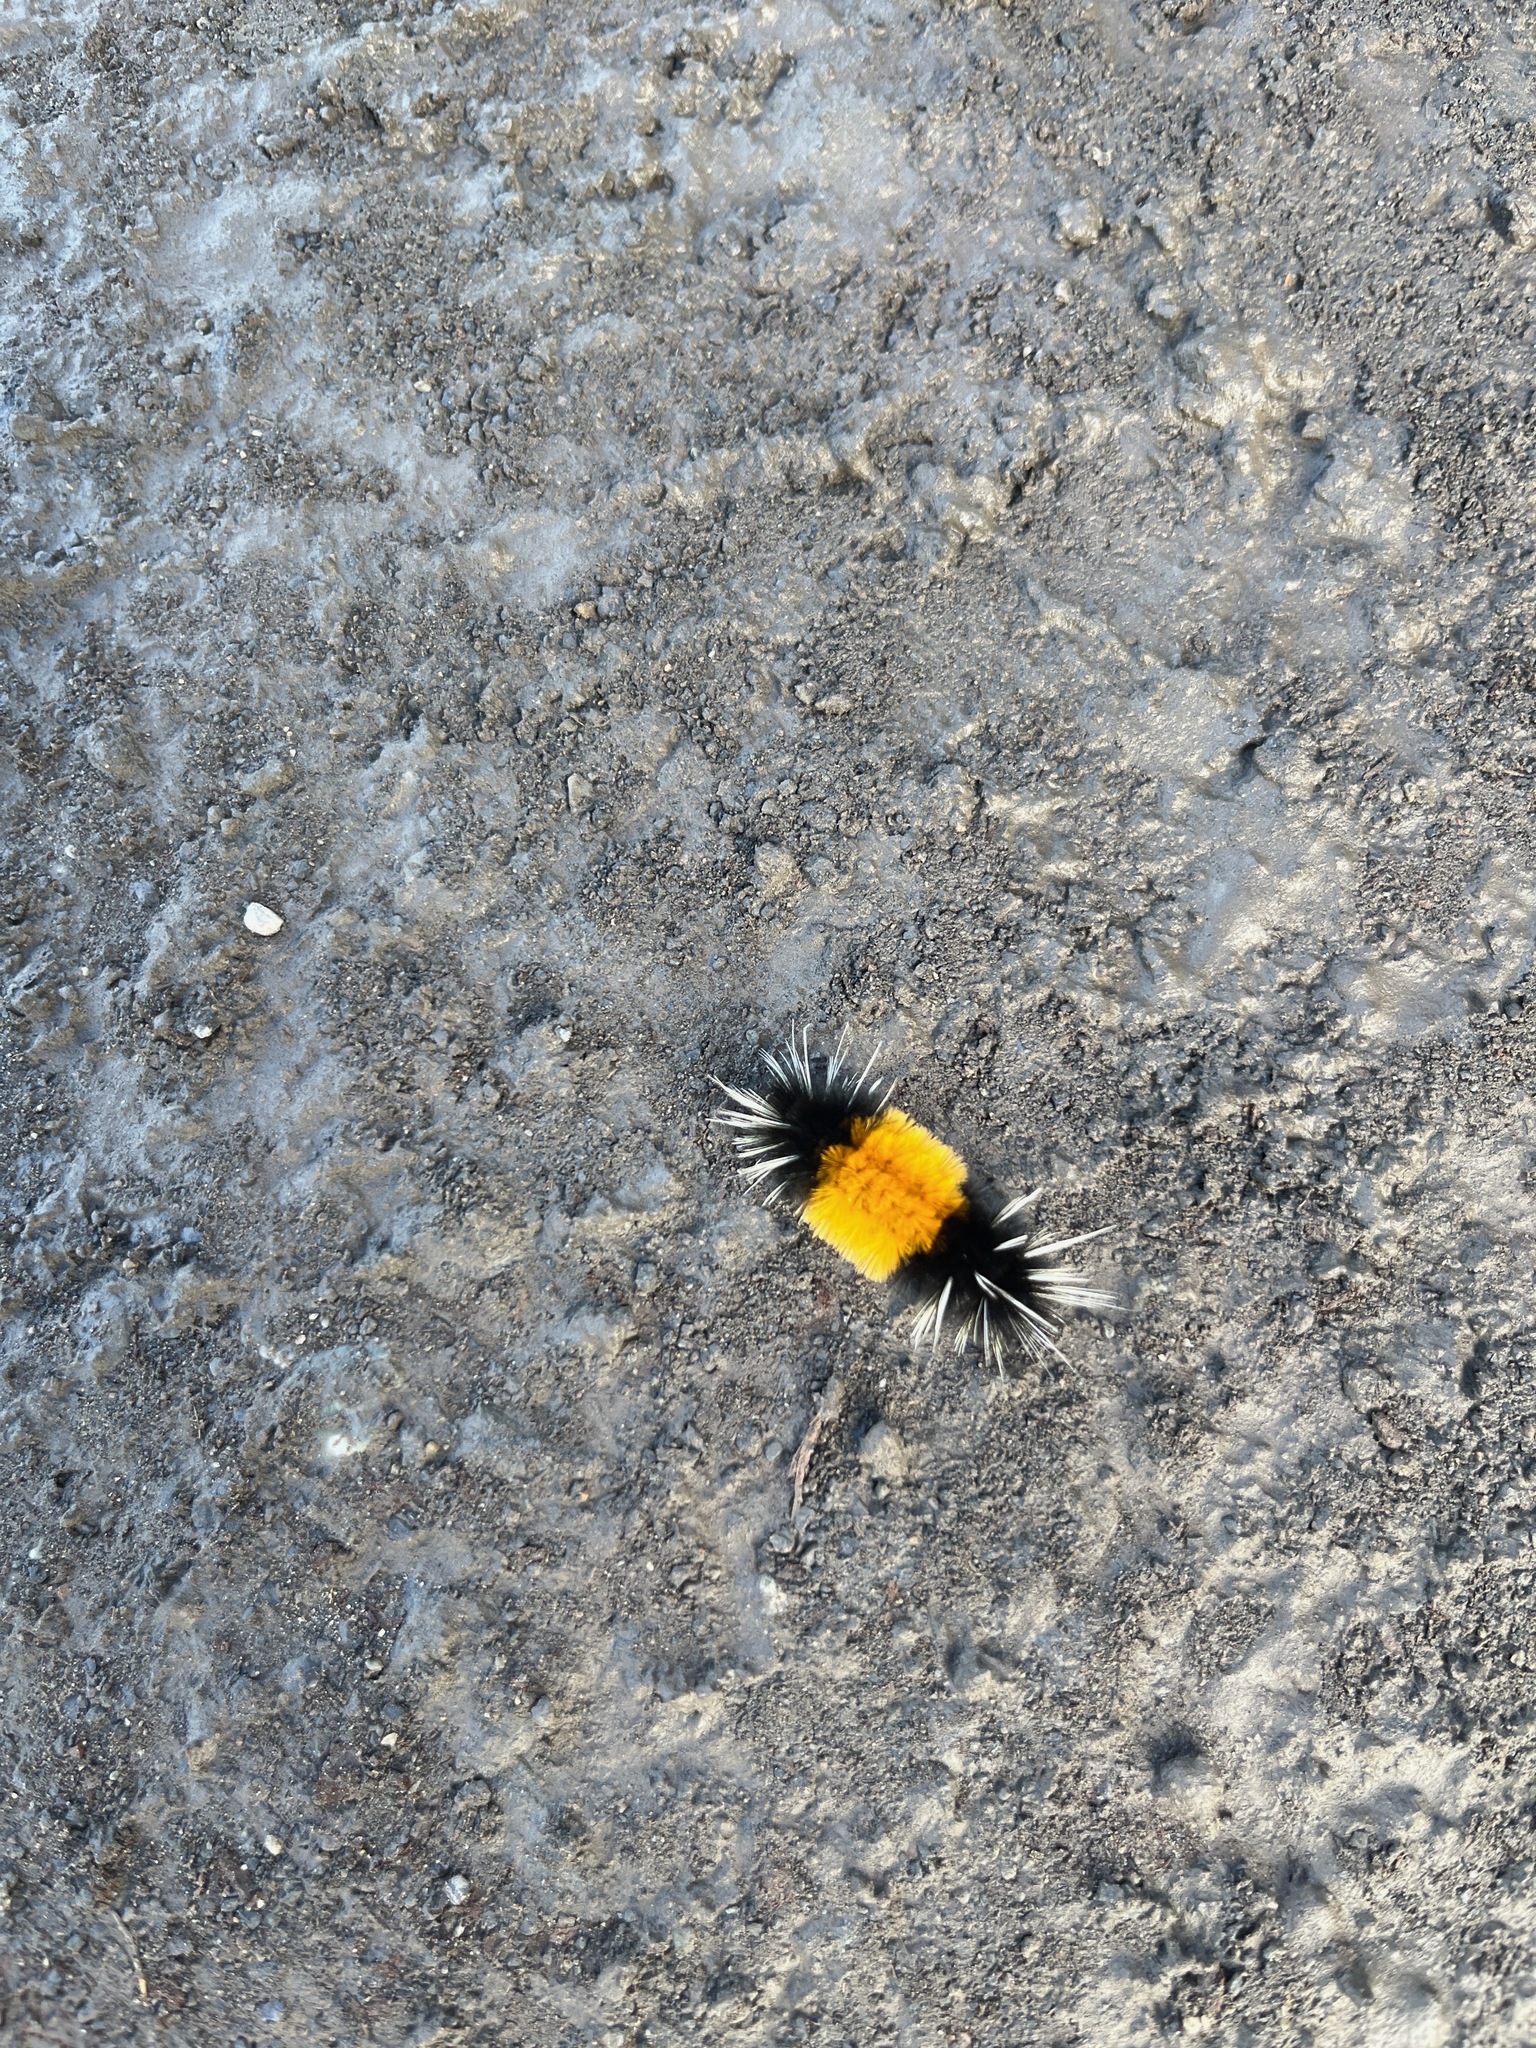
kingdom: Animalia
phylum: Arthropoda
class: Insecta
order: Lepidoptera
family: Erebidae
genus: Lophocampa
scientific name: Lophocampa maculata
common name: Spotted tussock moth
